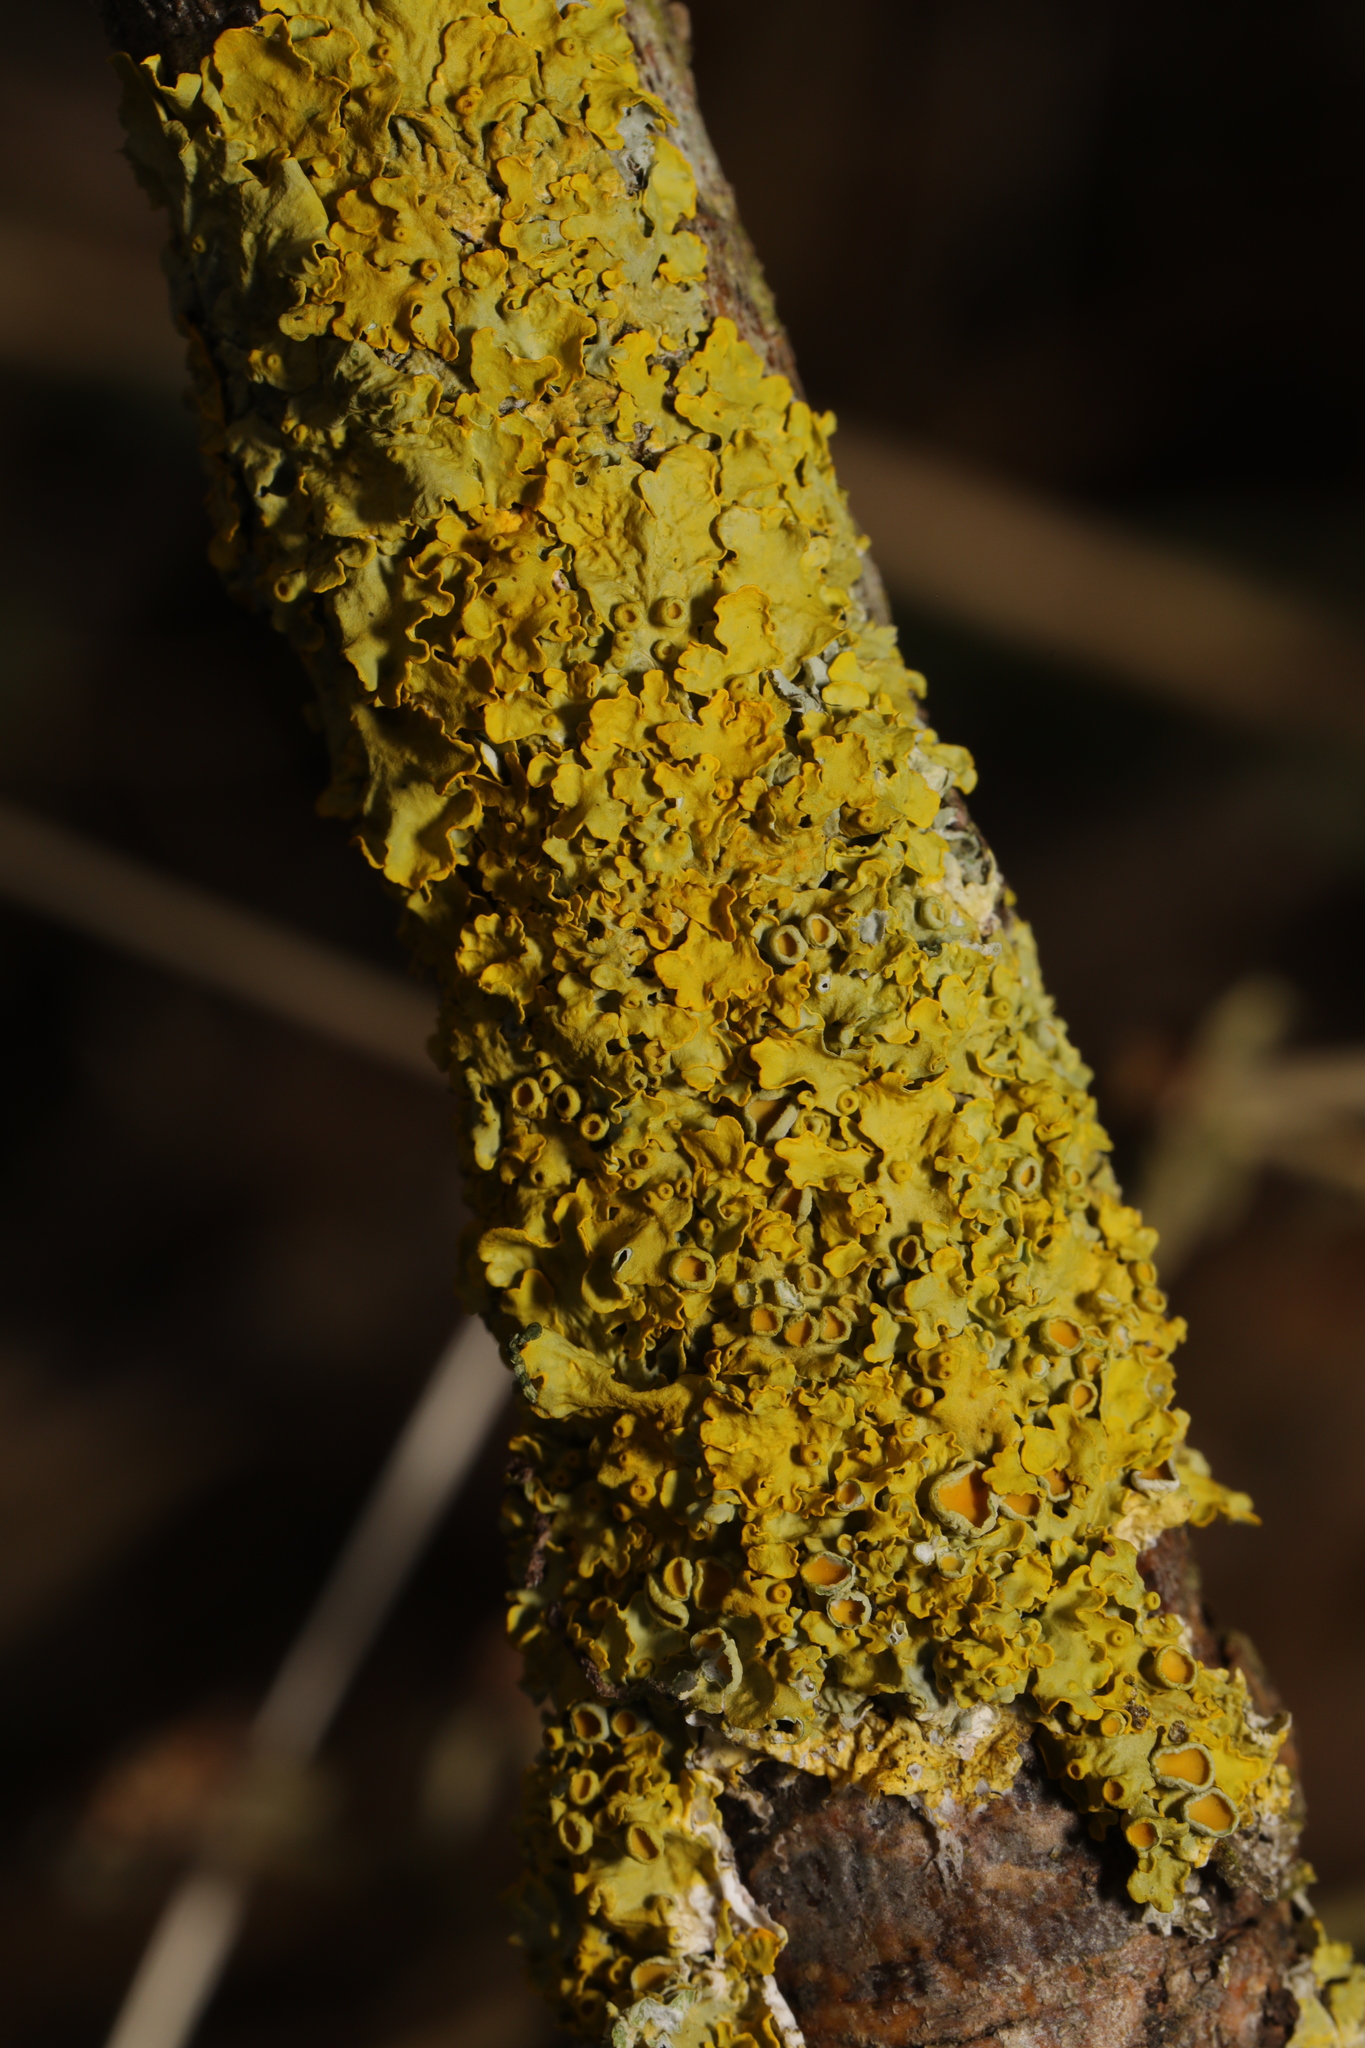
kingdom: Fungi
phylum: Ascomycota
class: Lecanoromycetes
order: Teloschistales
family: Teloschistaceae
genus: Xanthoria
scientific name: Xanthoria parietina
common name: Common orange lichen
